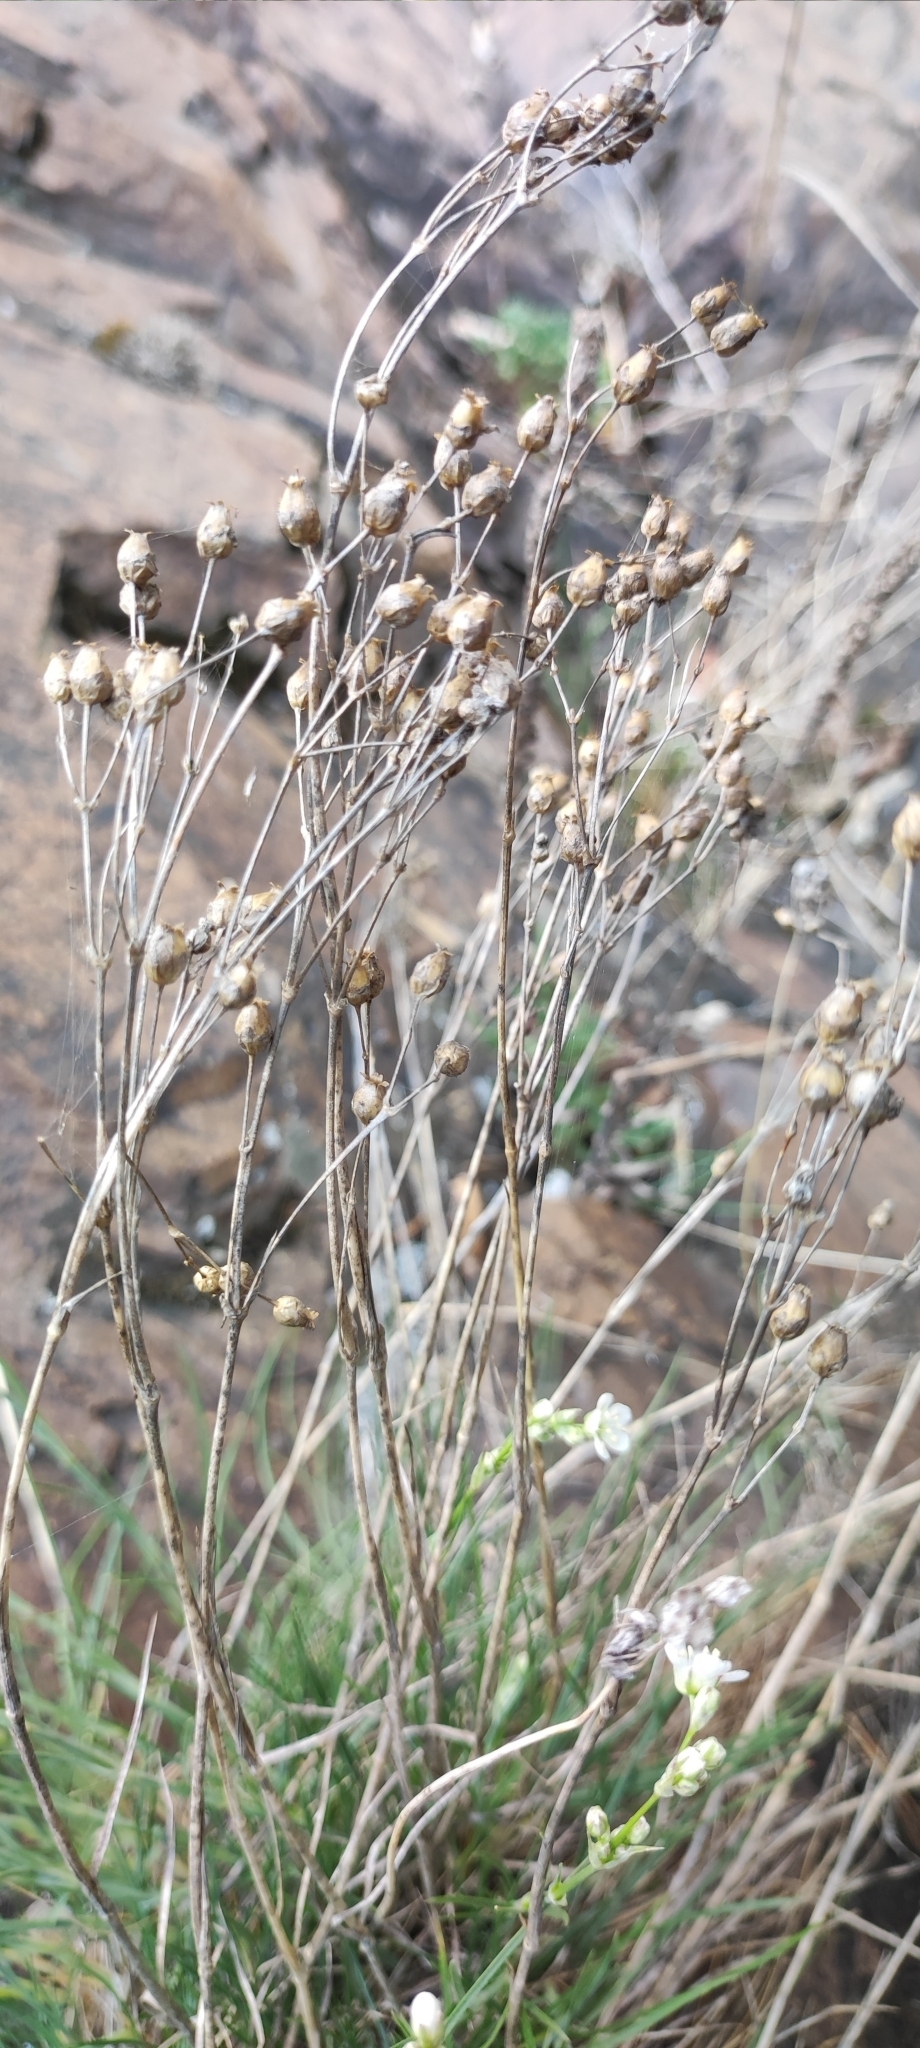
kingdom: Plantae
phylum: Tracheophyta
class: Magnoliopsida
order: Caryophyllales
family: Caryophyllaceae
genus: Eremogone
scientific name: Eremogone saxatilis
